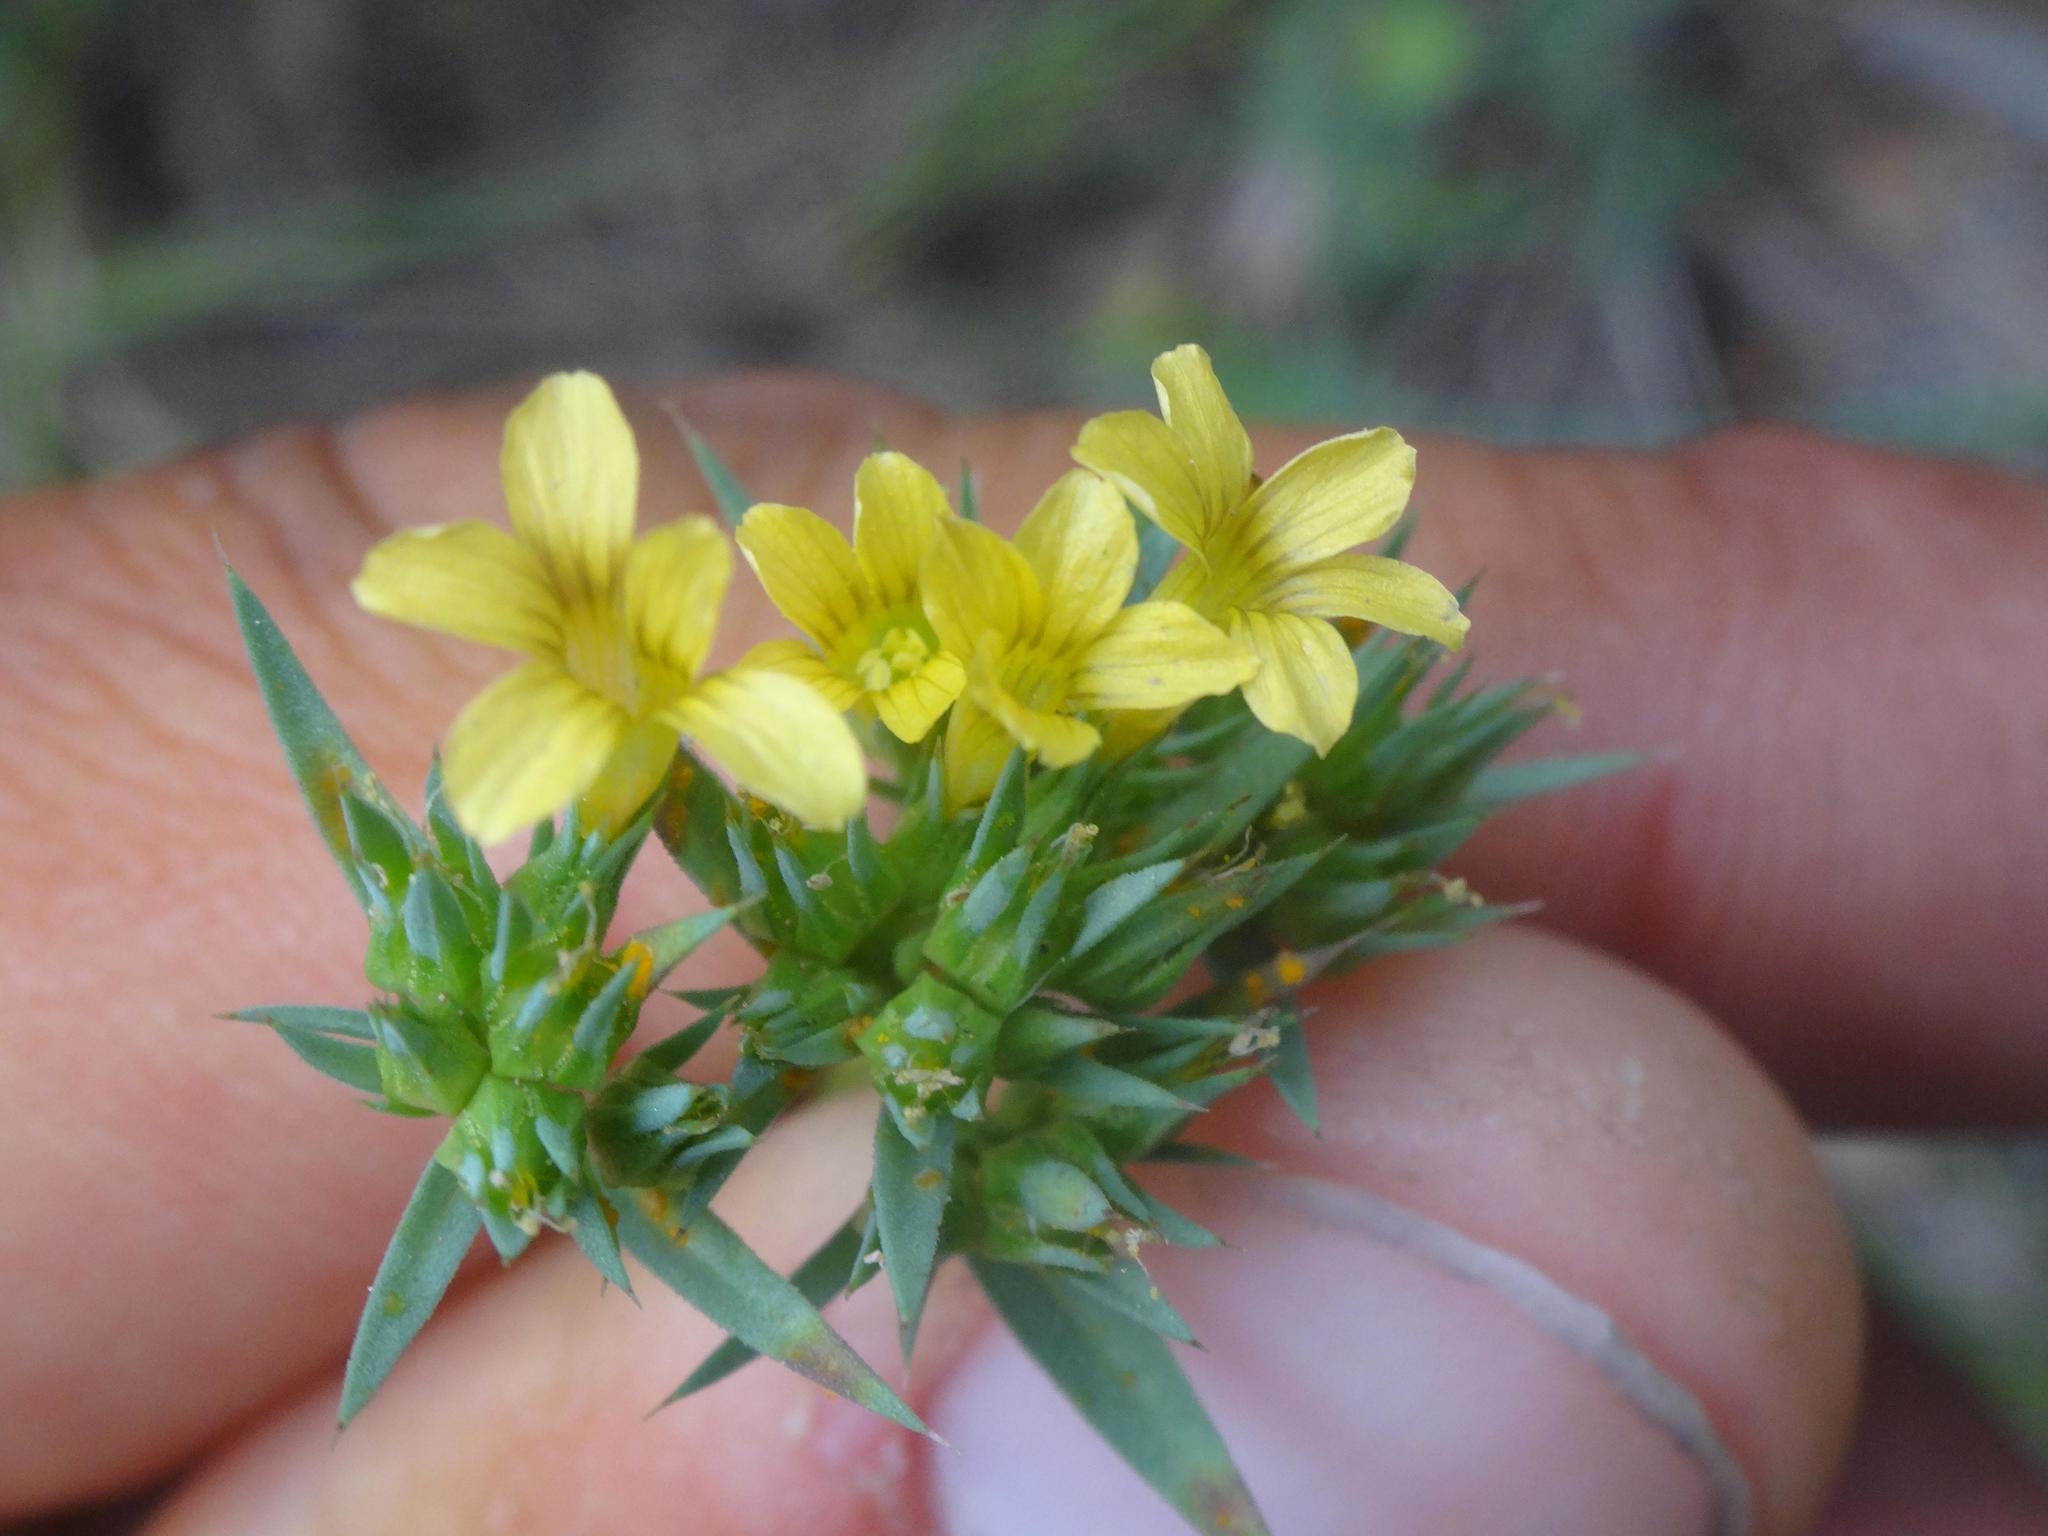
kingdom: Plantae
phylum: Tracheophyta
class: Magnoliopsida
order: Malpighiales
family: Linaceae
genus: Linum
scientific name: Linum strictum
